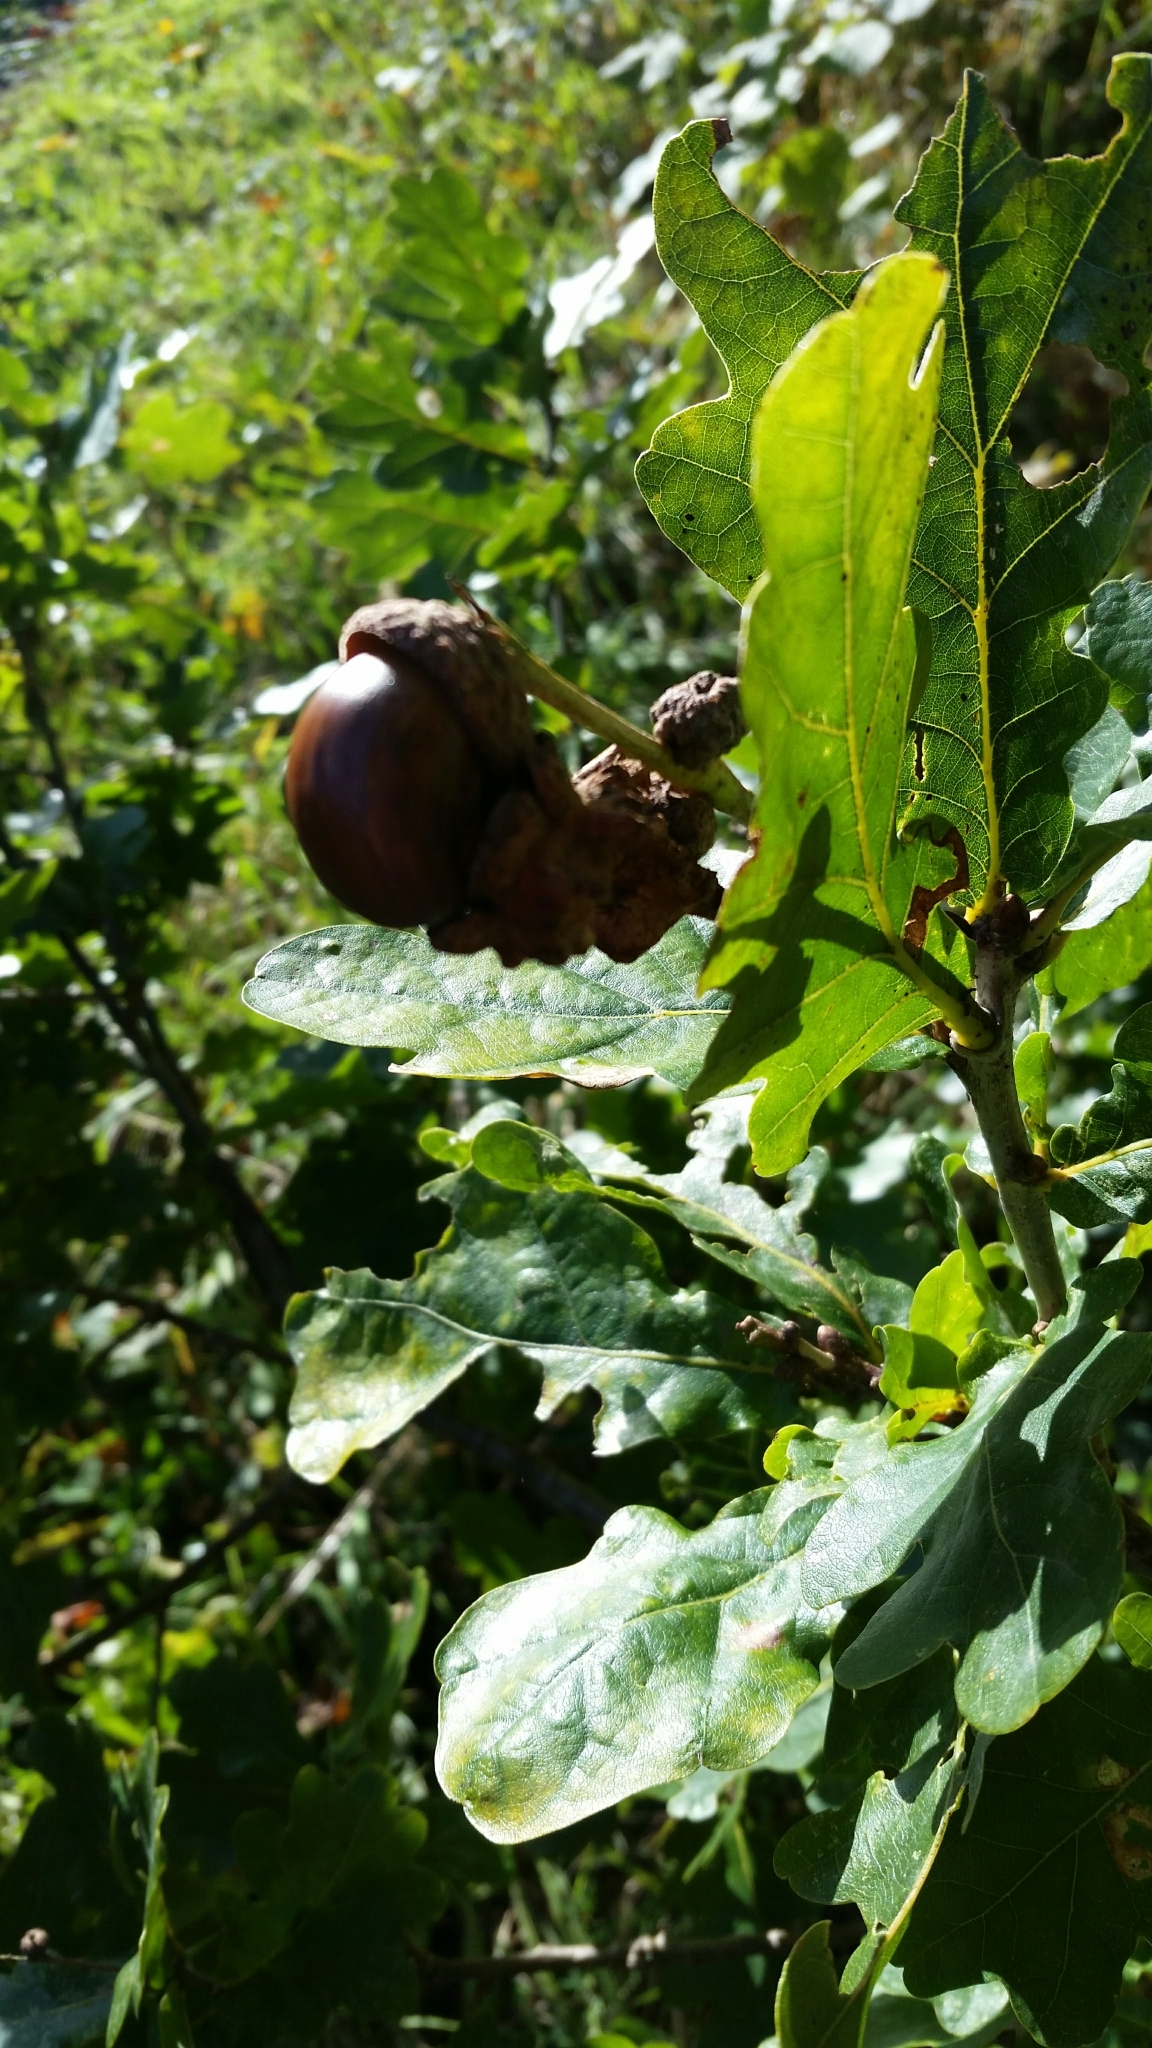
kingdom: Animalia
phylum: Arthropoda
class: Insecta
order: Hymenoptera
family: Cynipidae
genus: Andricus
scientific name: Andricus quercuscalicis
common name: Knopper gall
